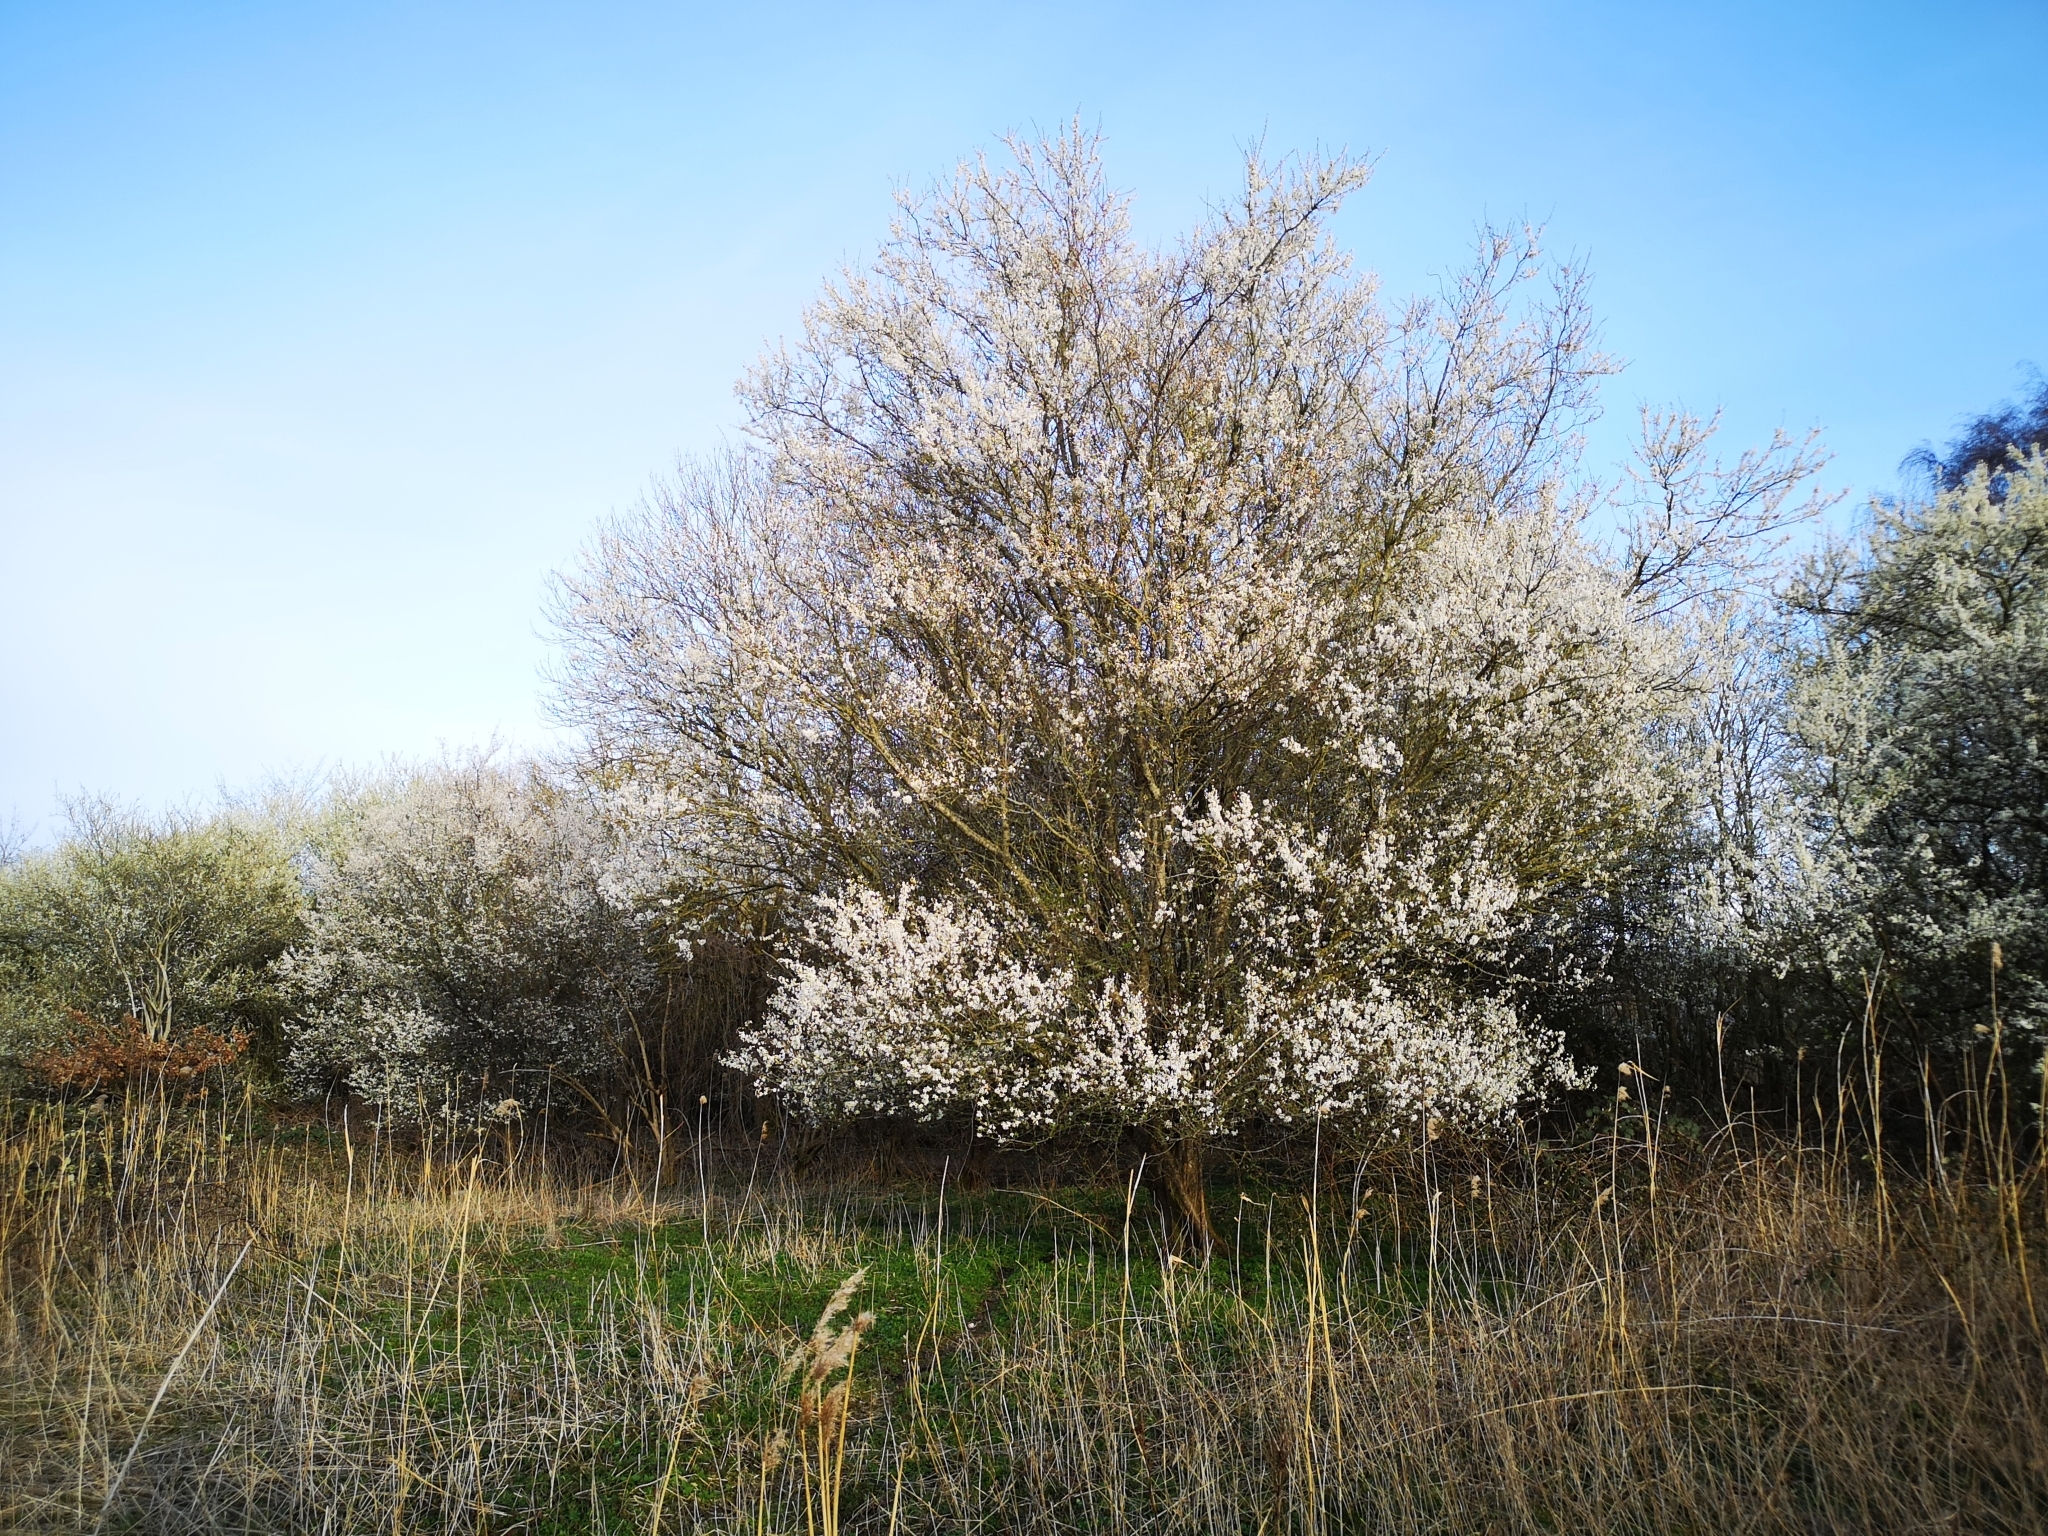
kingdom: Plantae
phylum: Tracheophyta
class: Magnoliopsida
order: Rosales
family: Rosaceae
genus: Prunus
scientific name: Prunus cerasifera
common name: Cherry plum
